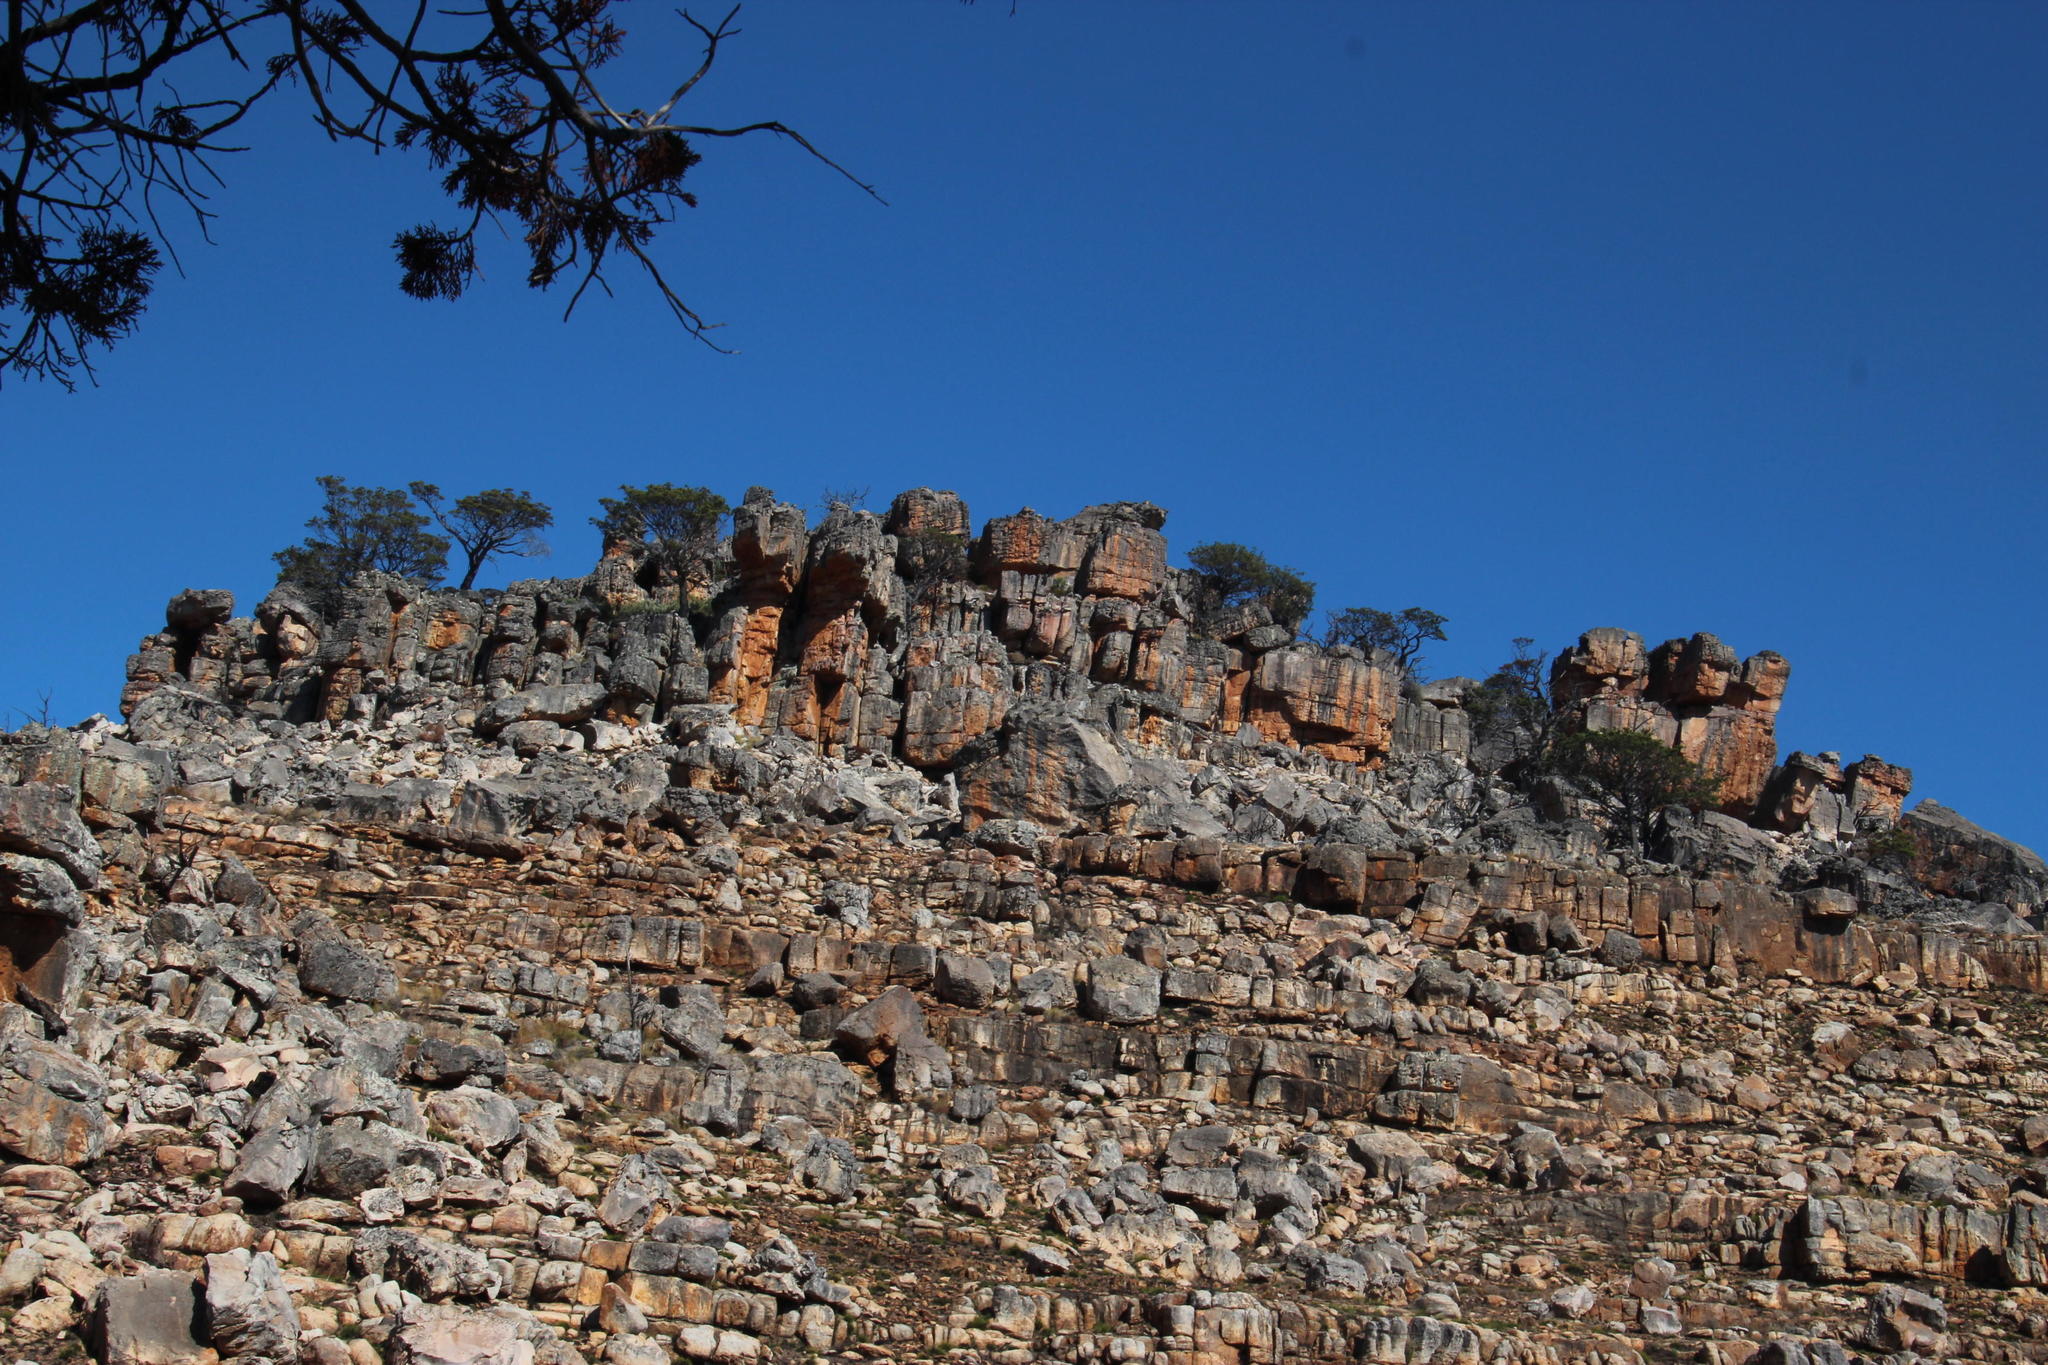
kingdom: Plantae
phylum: Tracheophyta
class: Pinopsida
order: Pinales
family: Cupressaceae
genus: Widdringtonia
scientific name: Widdringtonia nodiflora
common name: Cape cypress
